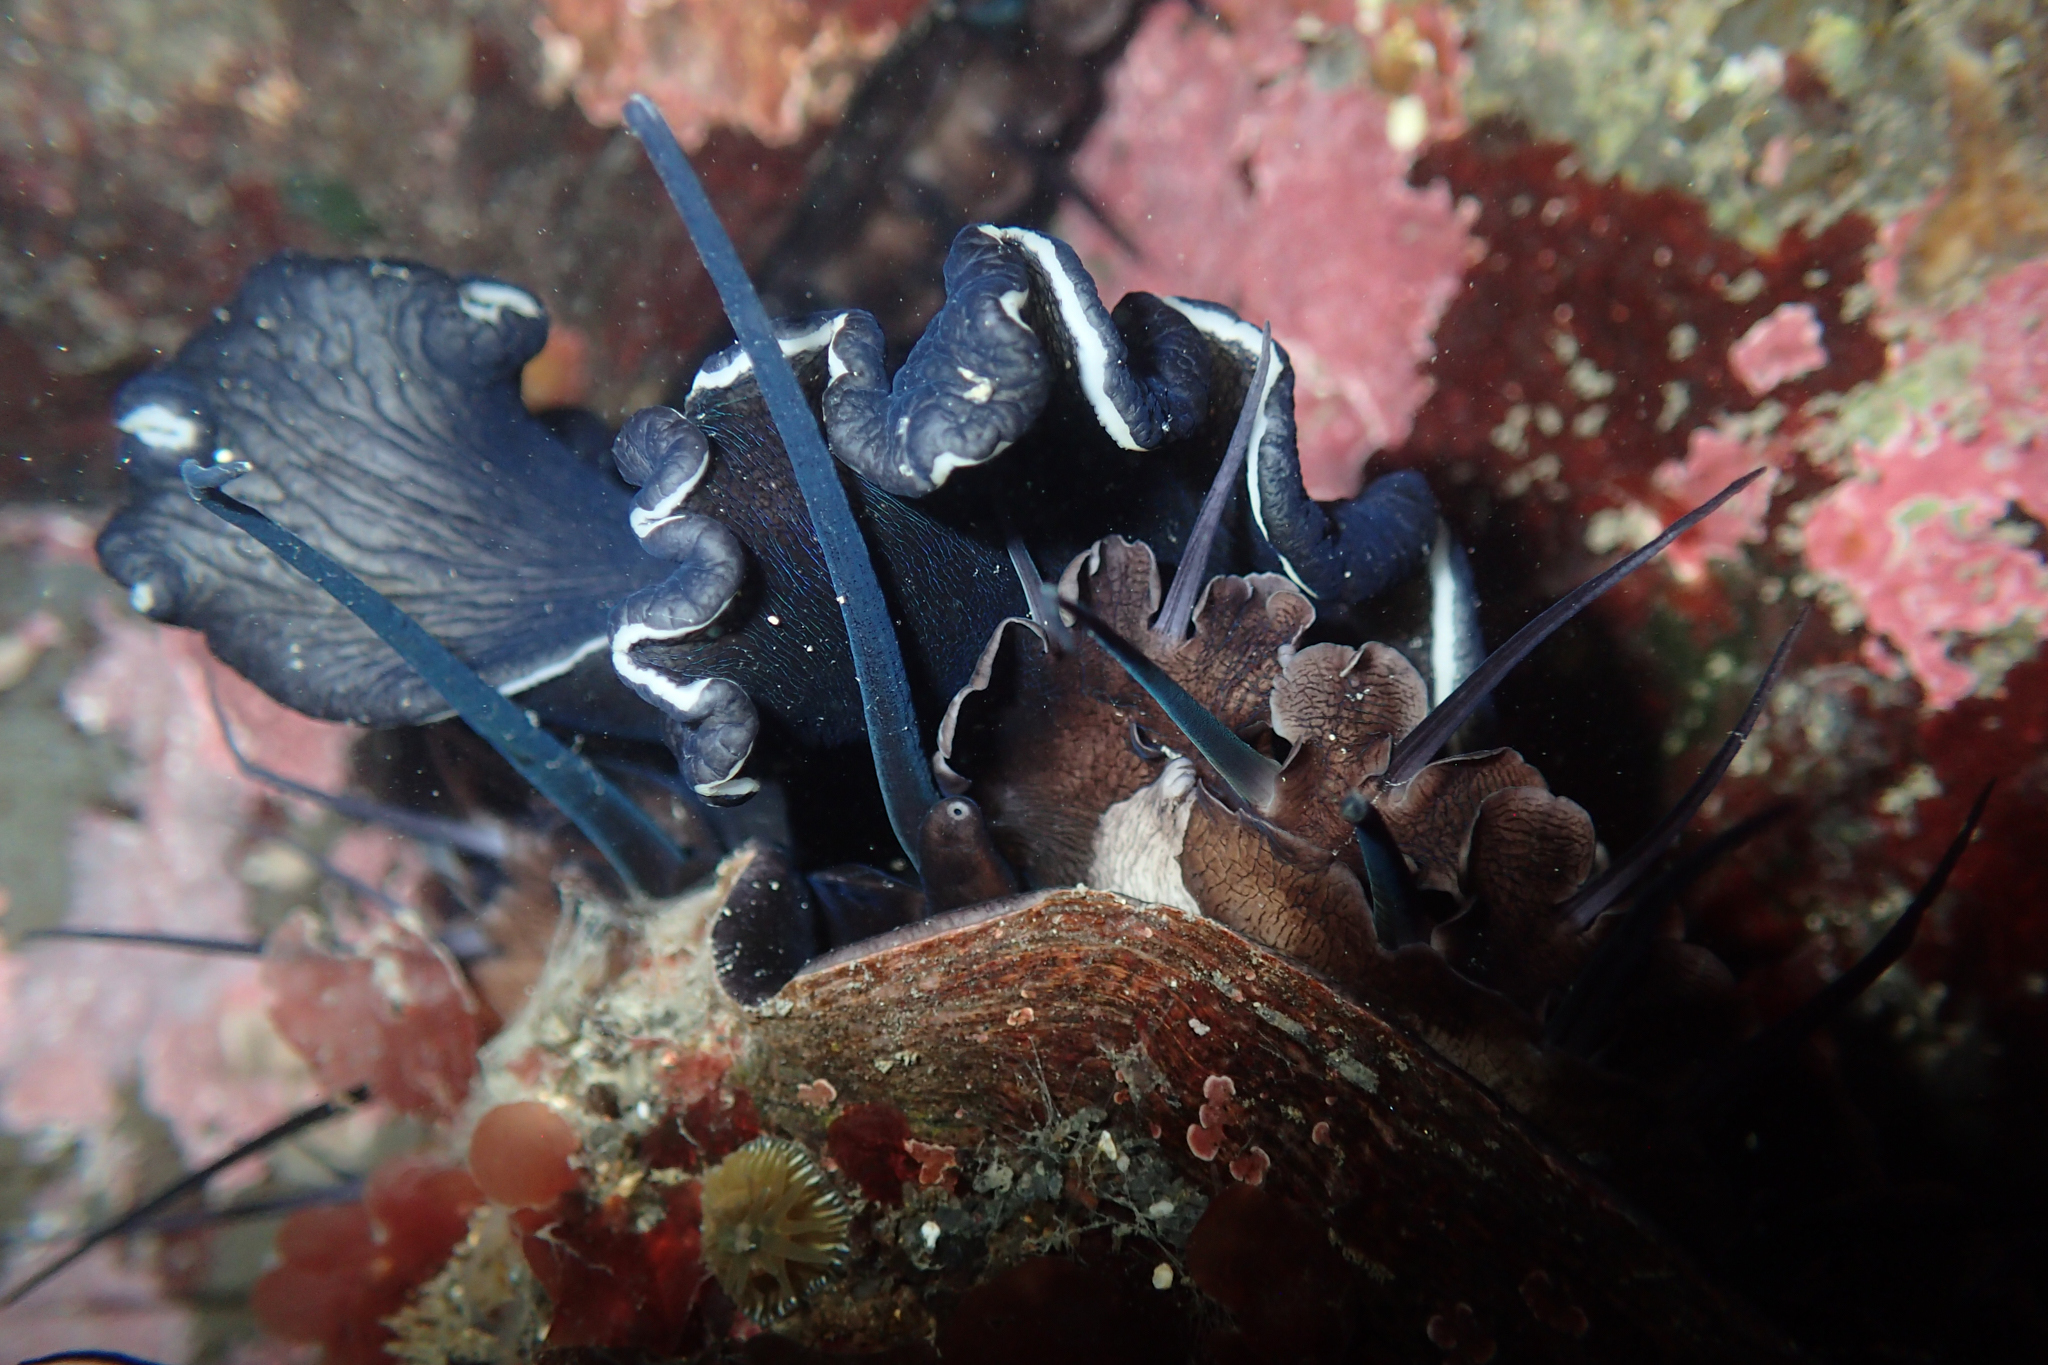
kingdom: Animalia
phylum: Mollusca
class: Gastropoda
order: Lepetellida
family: Haliotidae
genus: Haliotis
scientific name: Haliotis rufescens
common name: Red abalone
